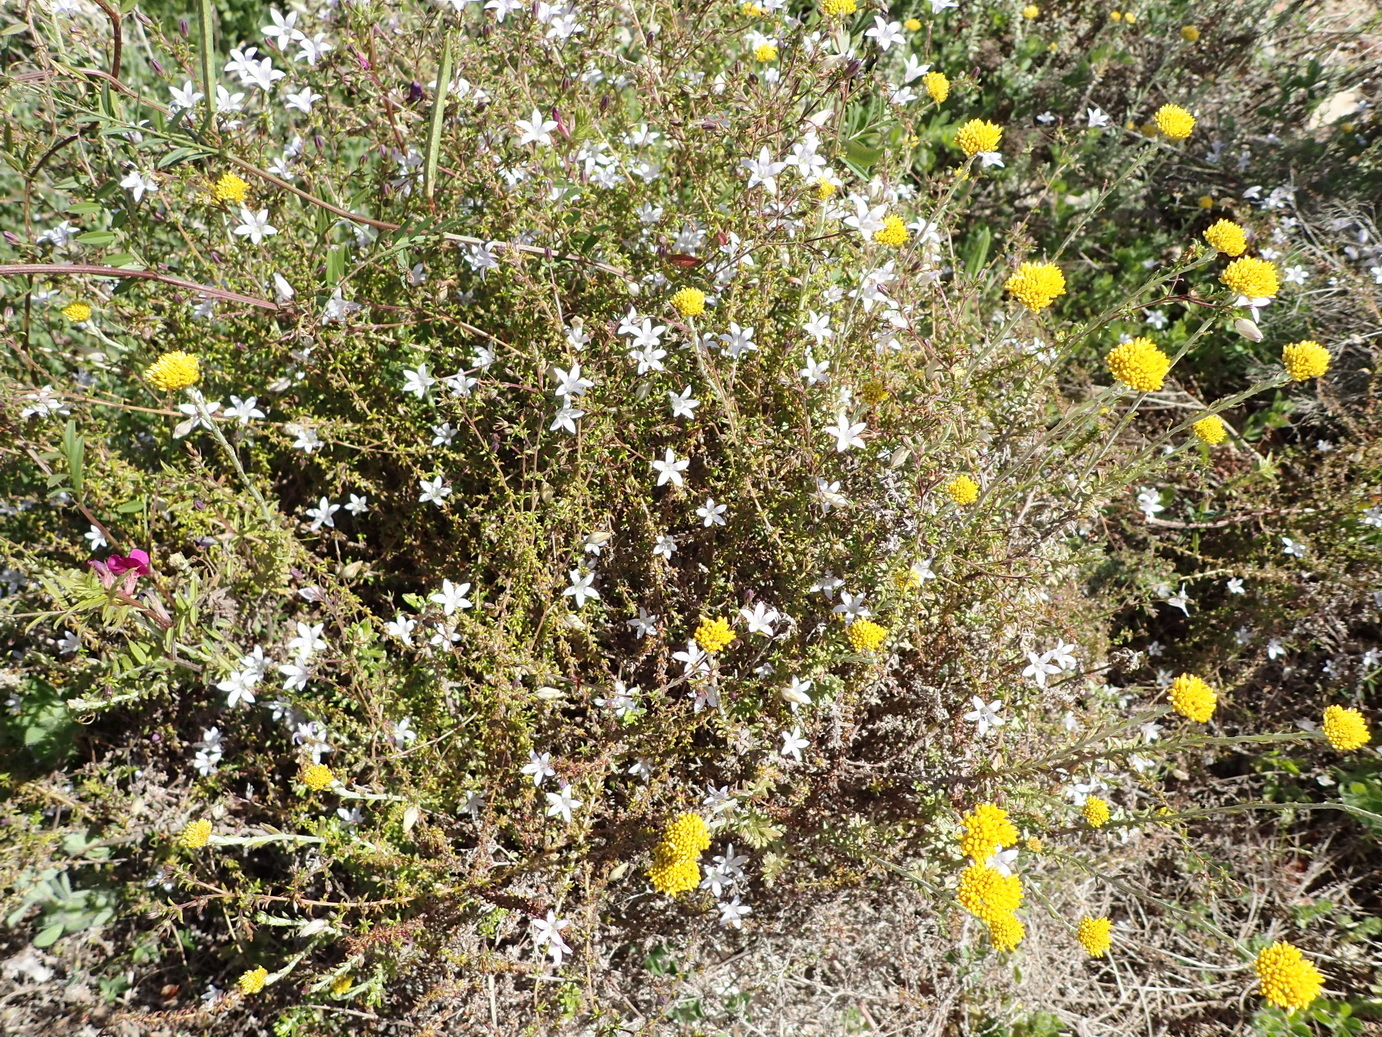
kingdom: Plantae
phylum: Tracheophyta
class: Magnoliopsida
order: Asterales
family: Campanulaceae
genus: Wahlenbergia
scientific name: Wahlenbergia thunbergii
